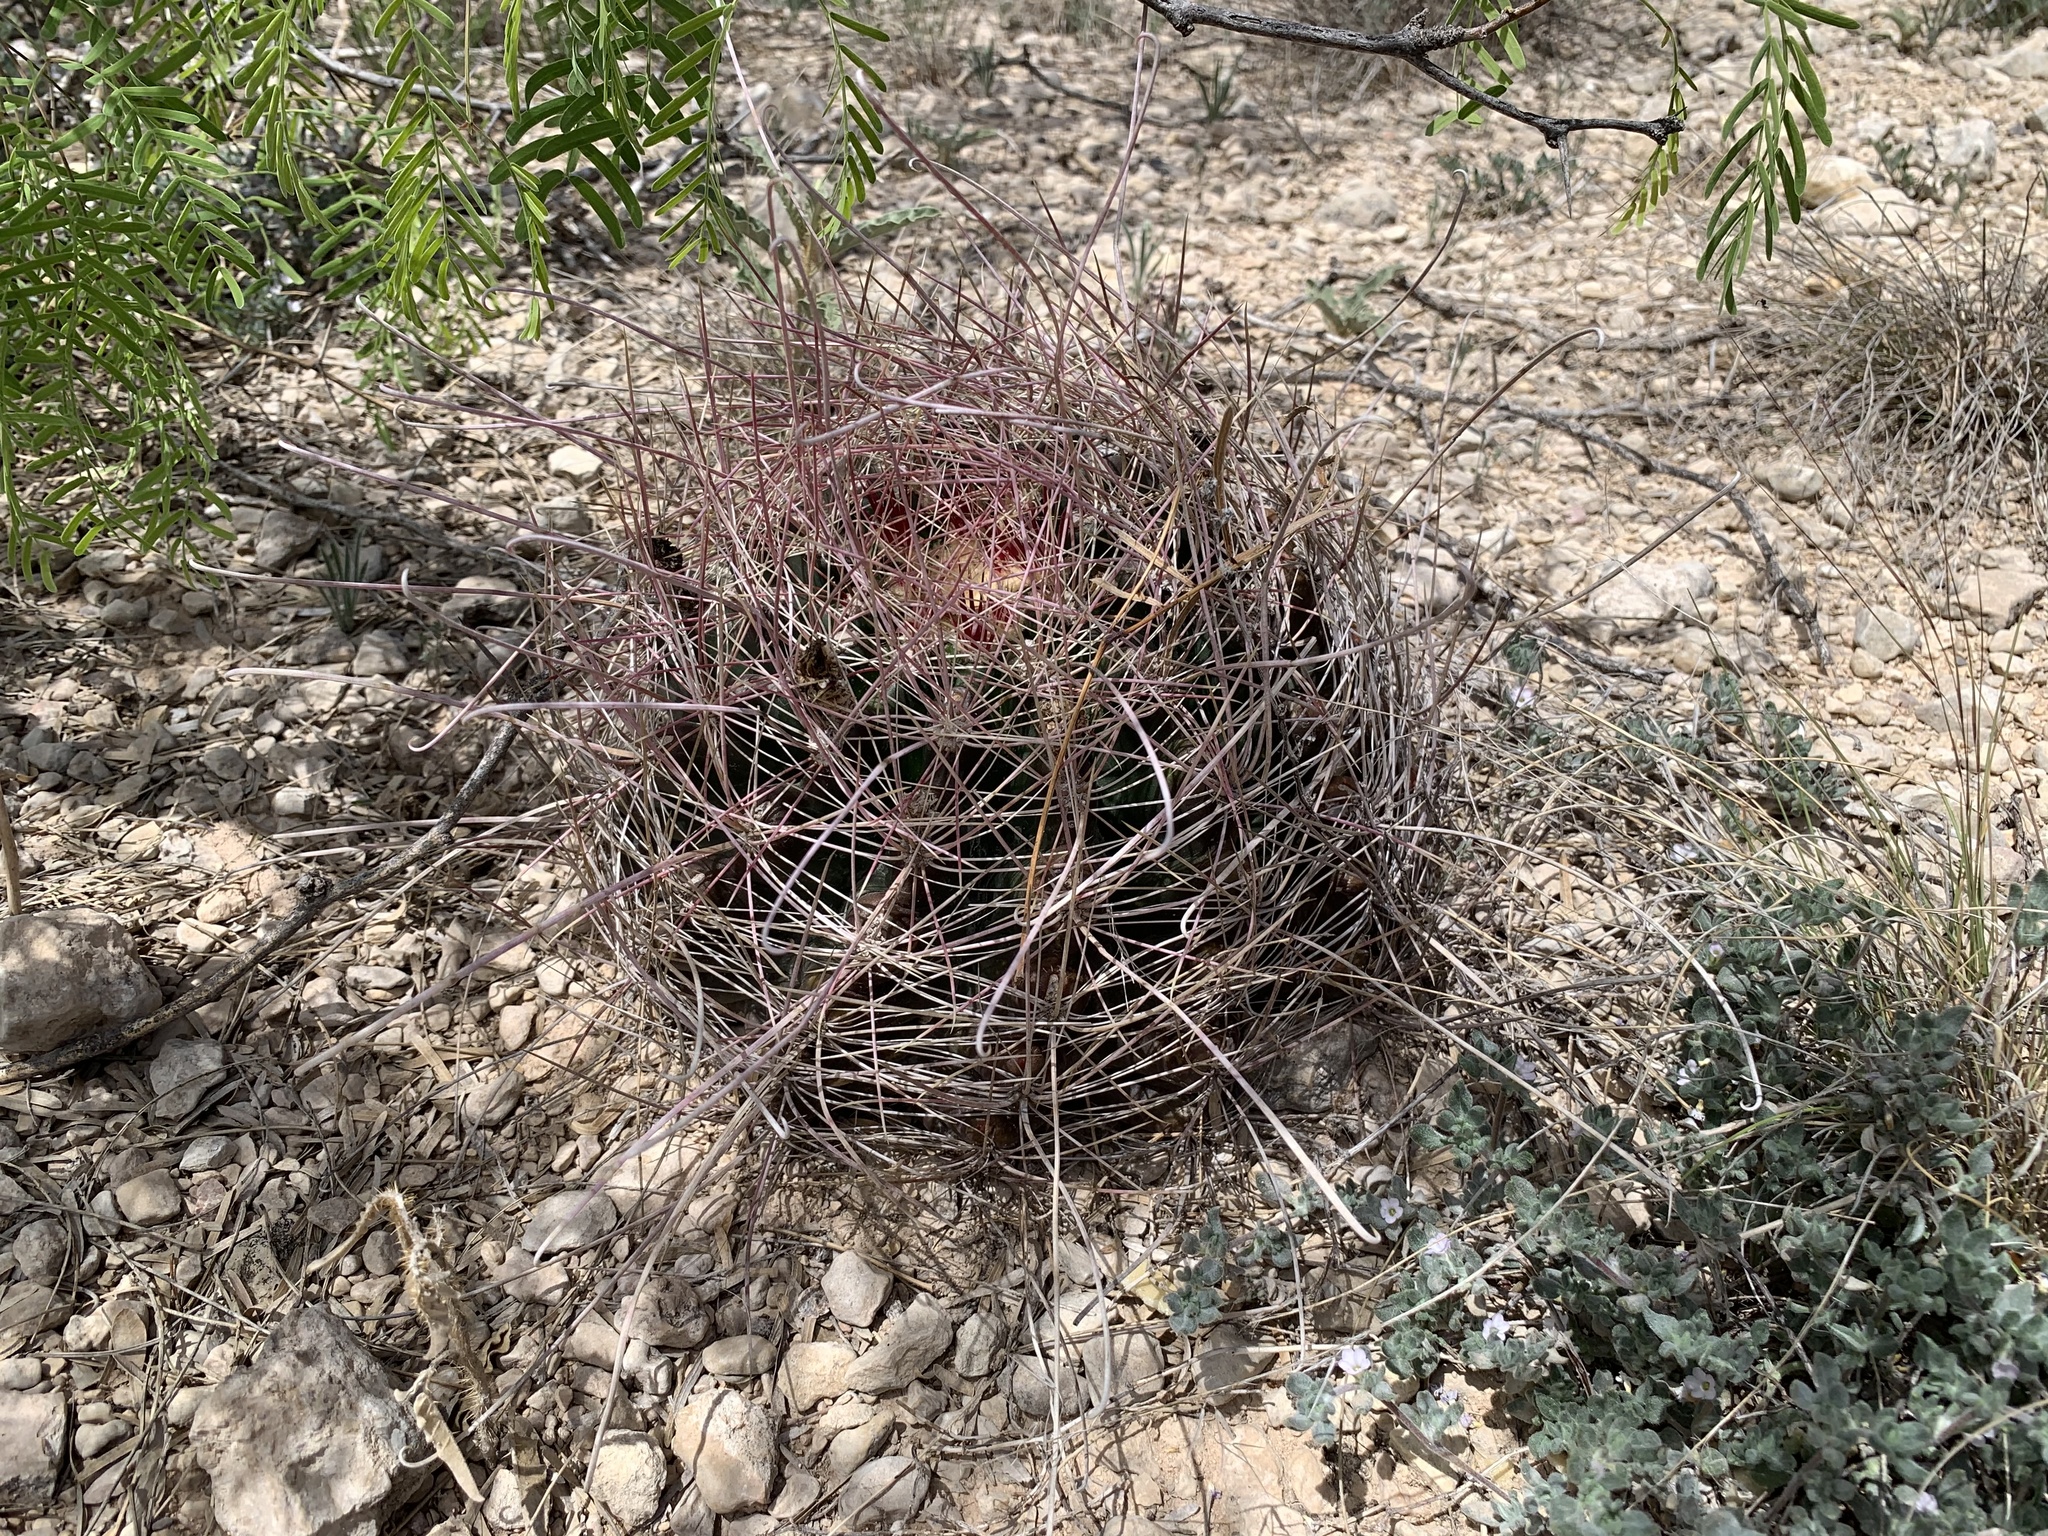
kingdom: Plantae
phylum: Tracheophyta
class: Magnoliopsida
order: Caryophyllales
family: Cactaceae
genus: Bisnaga
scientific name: Bisnaga hamatacantha
